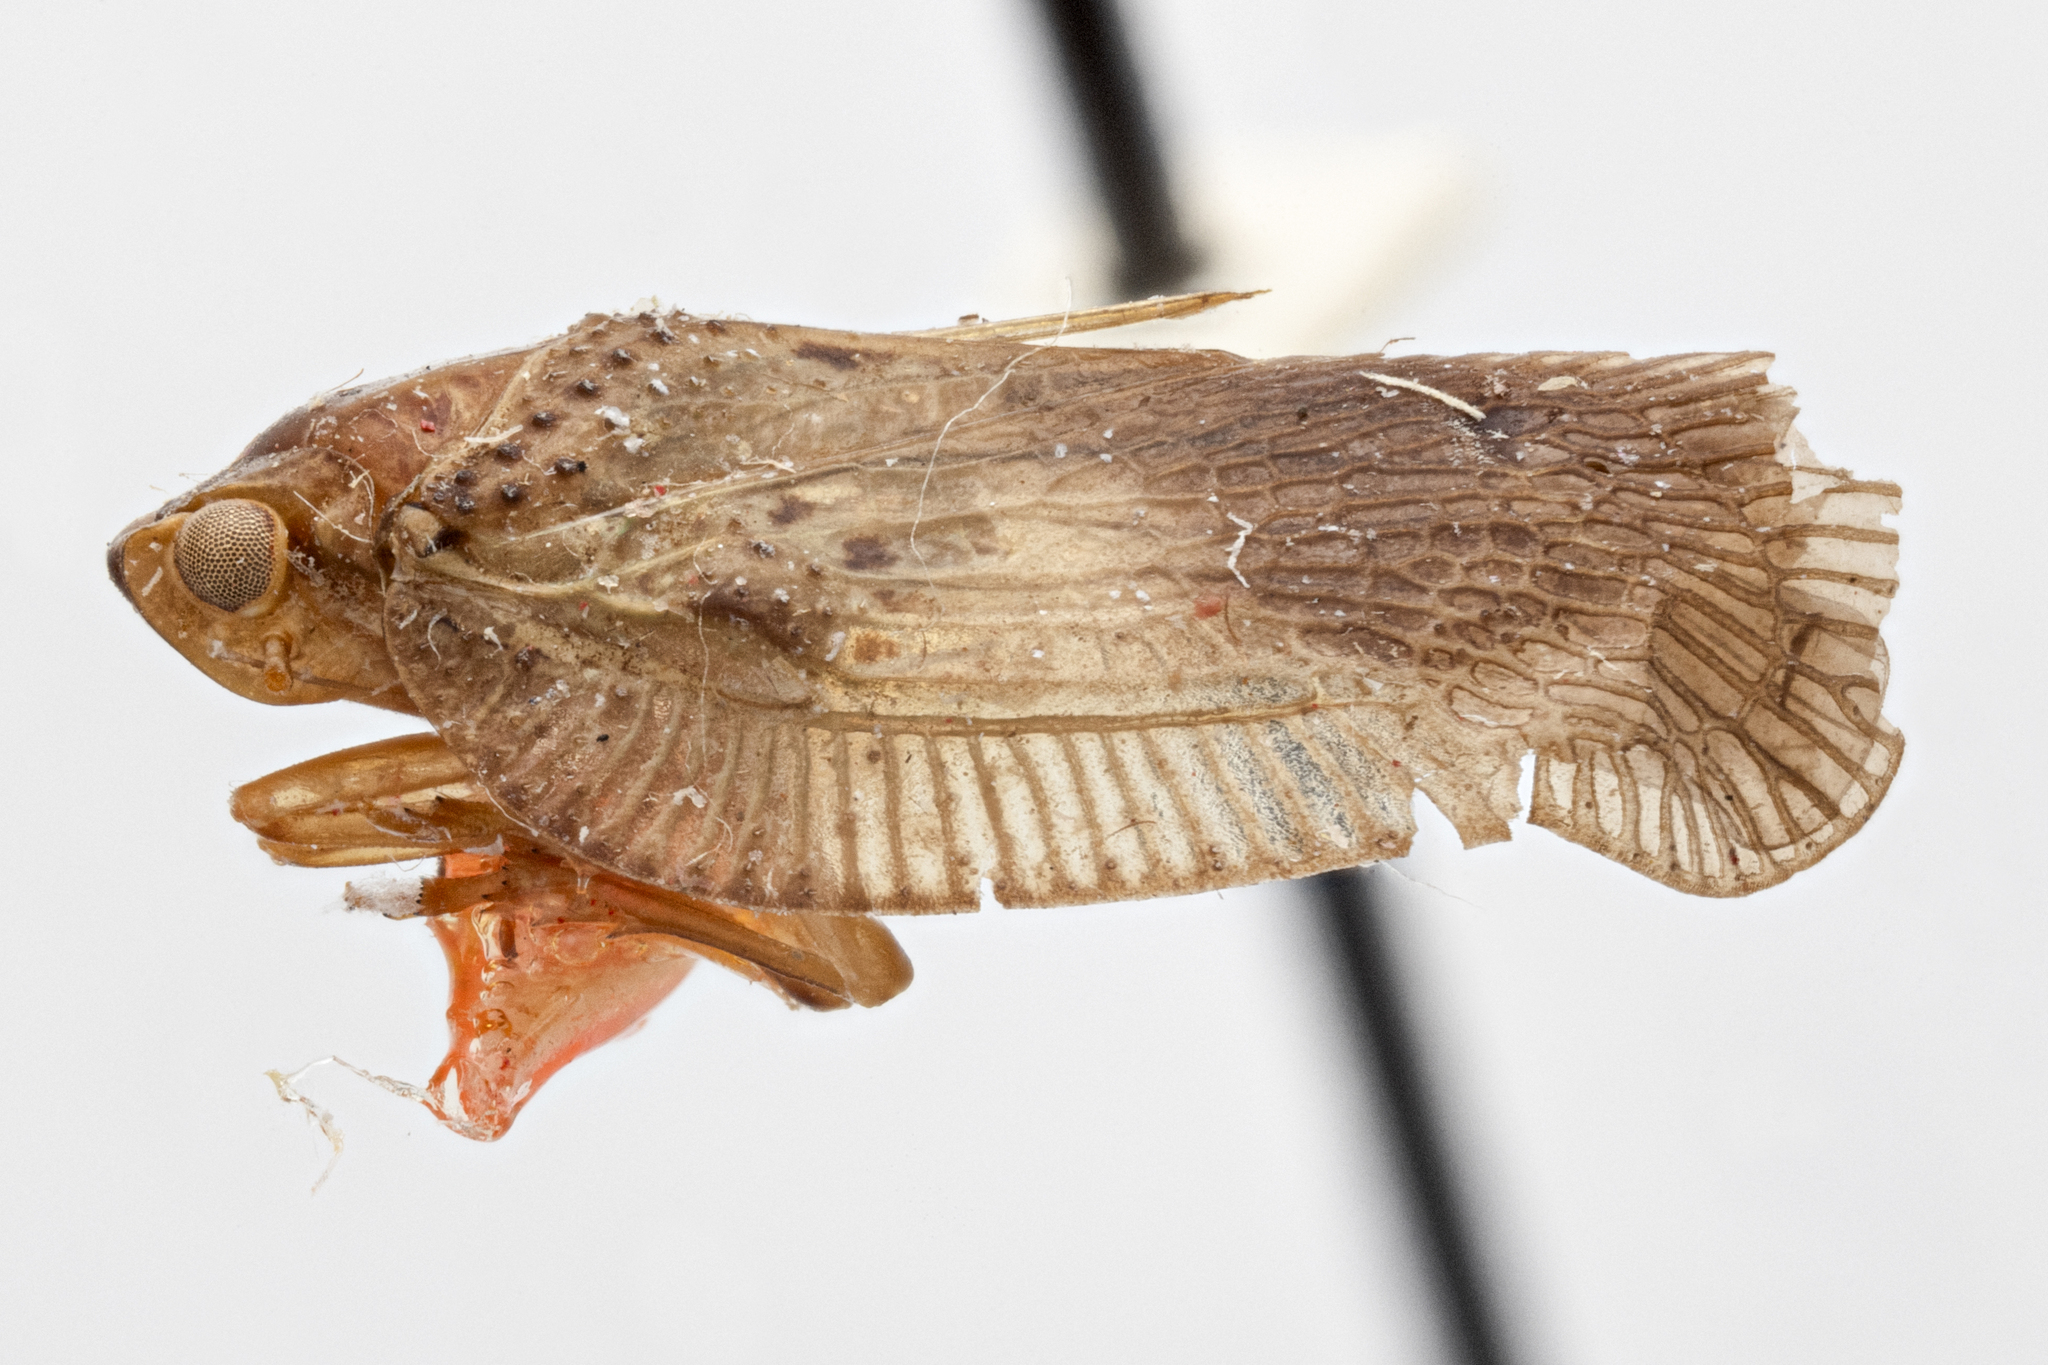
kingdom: Animalia
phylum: Arthropoda
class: Insecta
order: Hemiptera
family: Flatidae
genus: Capistra
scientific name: Capistra zyxa
